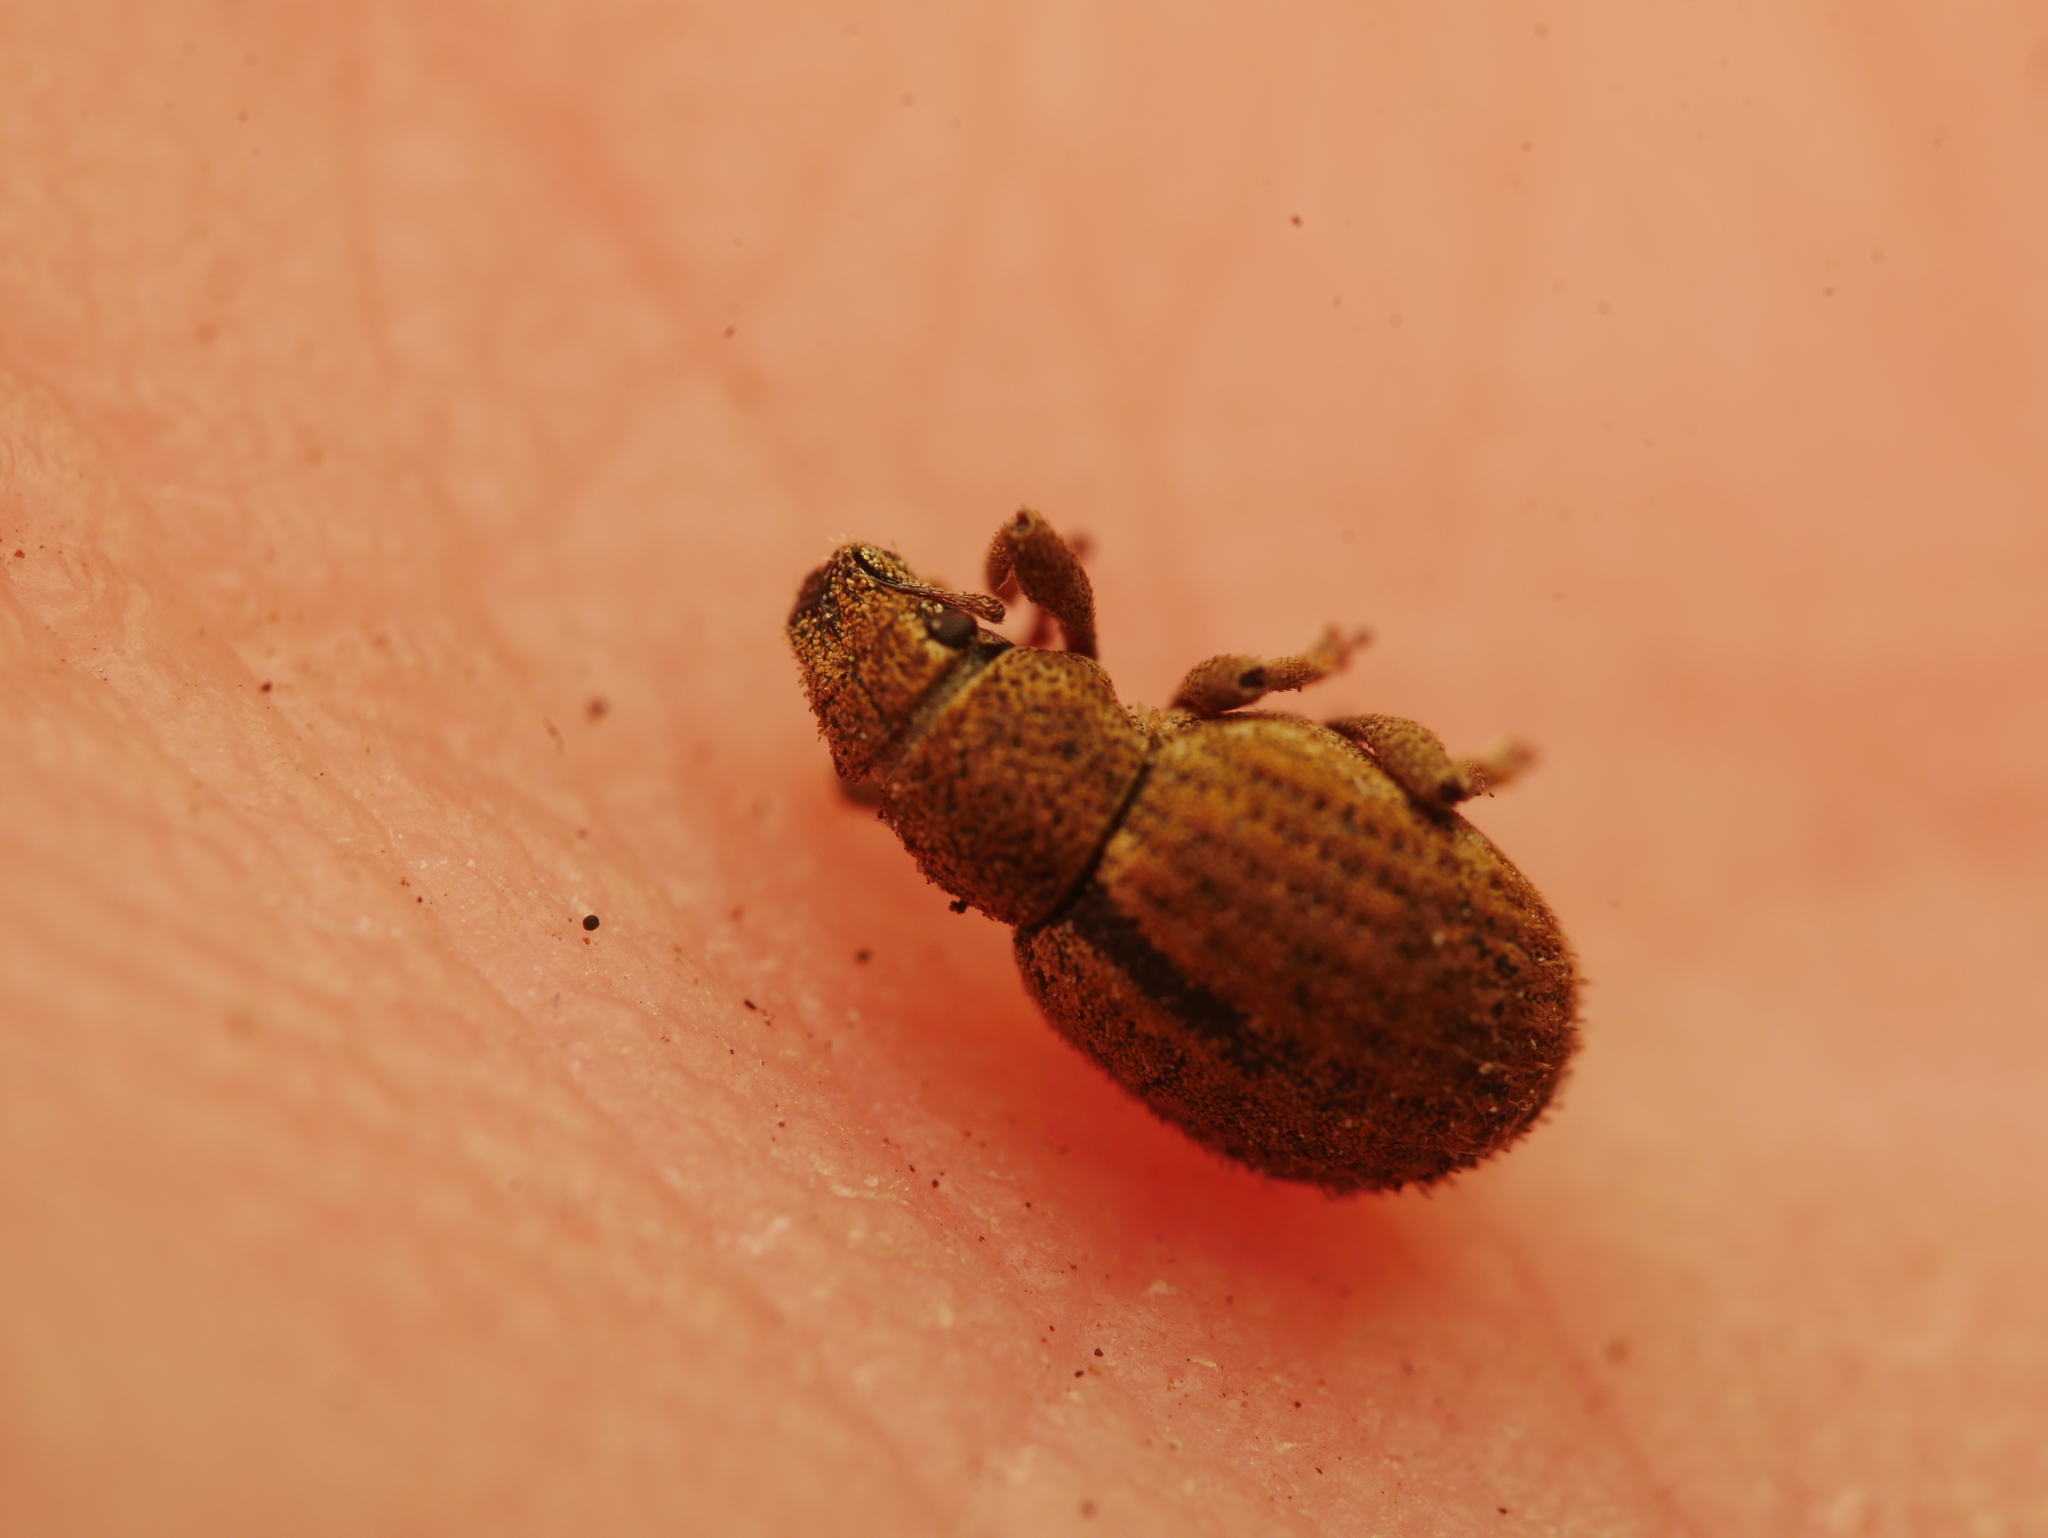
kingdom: Animalia
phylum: Arthropoda
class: Insecta
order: Coleoptera
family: Curculionidae
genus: Strophosoma
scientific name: Strophosoma melanogrammum
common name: Weevil
